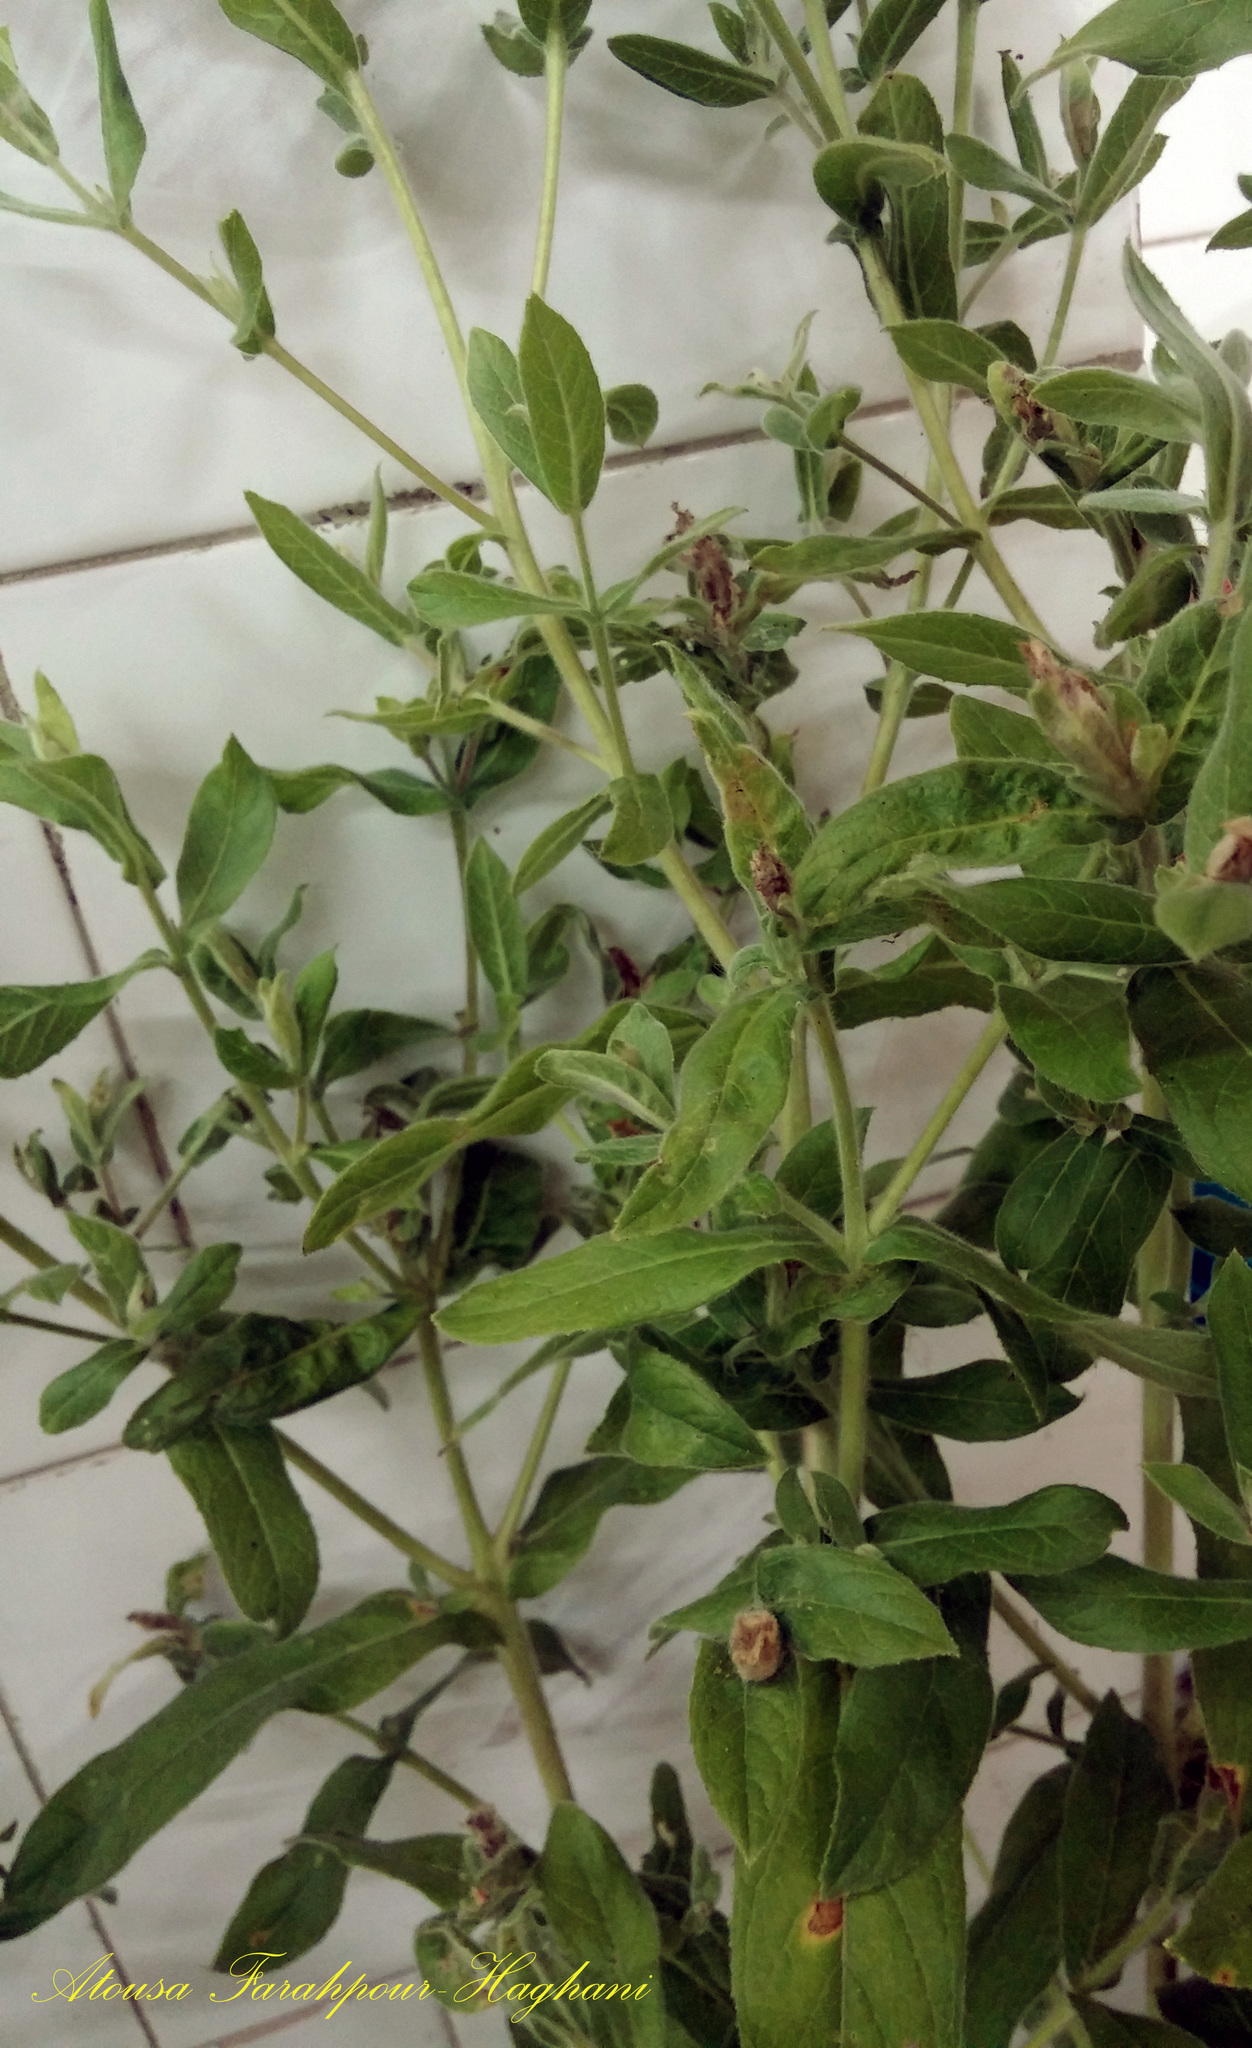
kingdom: Plantae
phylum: Tracheophyta
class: Magnoliopsida
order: Myrtales
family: Onagraceae
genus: Epilobium
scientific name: Epilobium hirsutum
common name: Great willowherb
